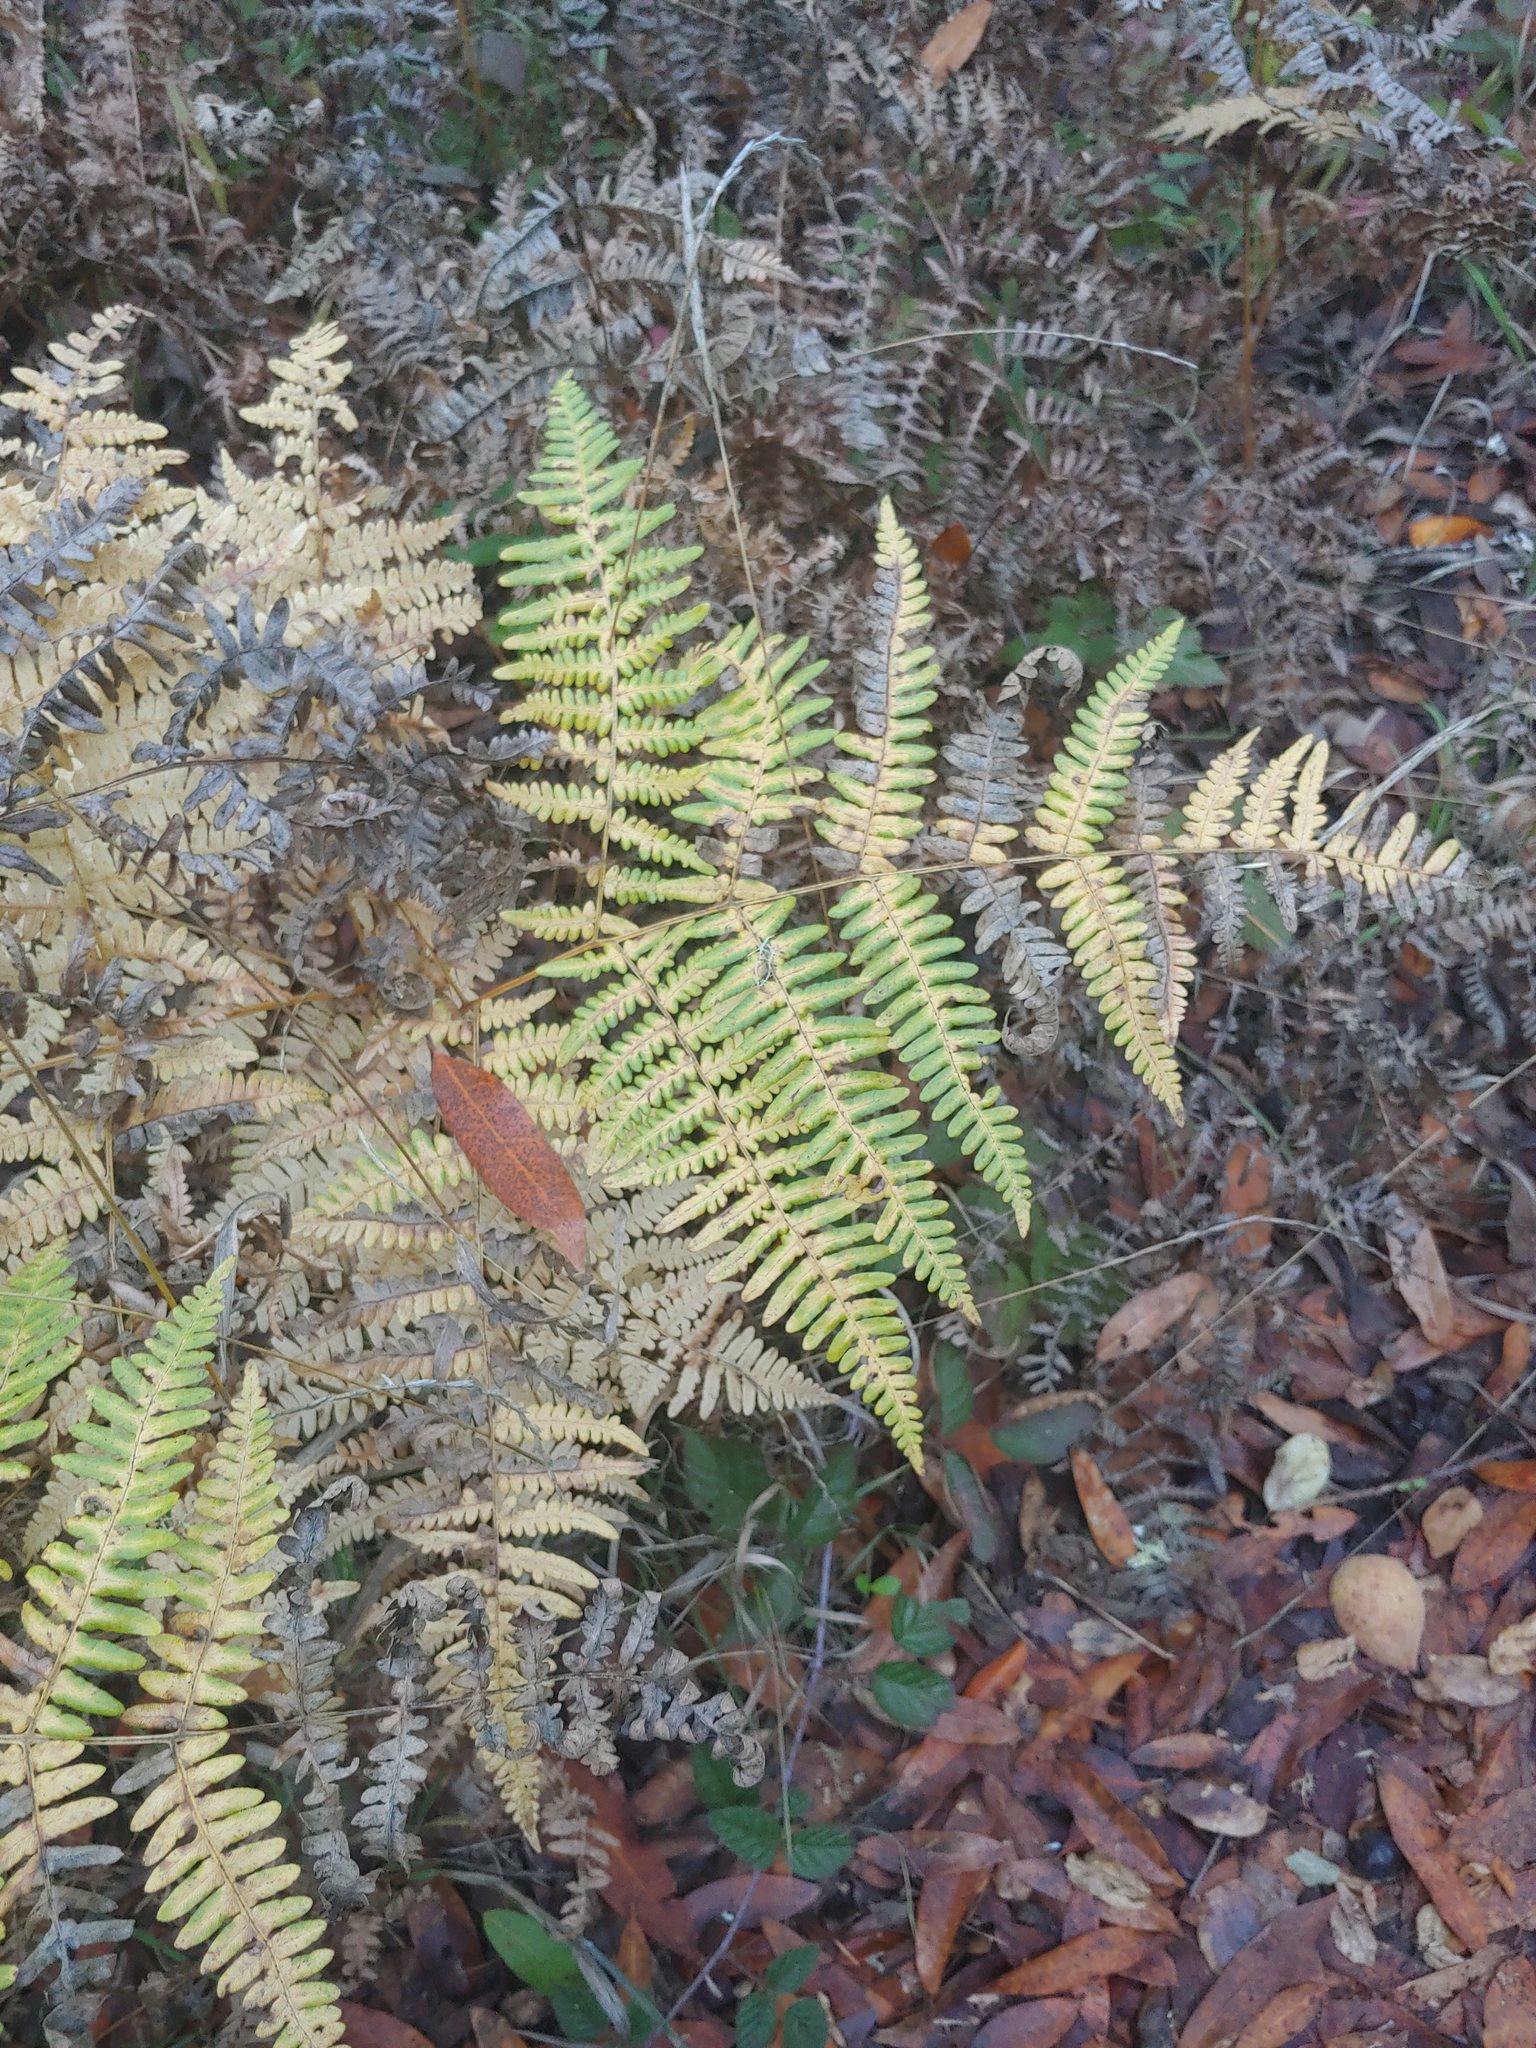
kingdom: Plantae
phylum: Tracheophyta
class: Polypodiopsida
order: Polypodiales
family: Dennstaedtiaceae
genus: Pteridium
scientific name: Pteridium aquilinum
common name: Bracken
